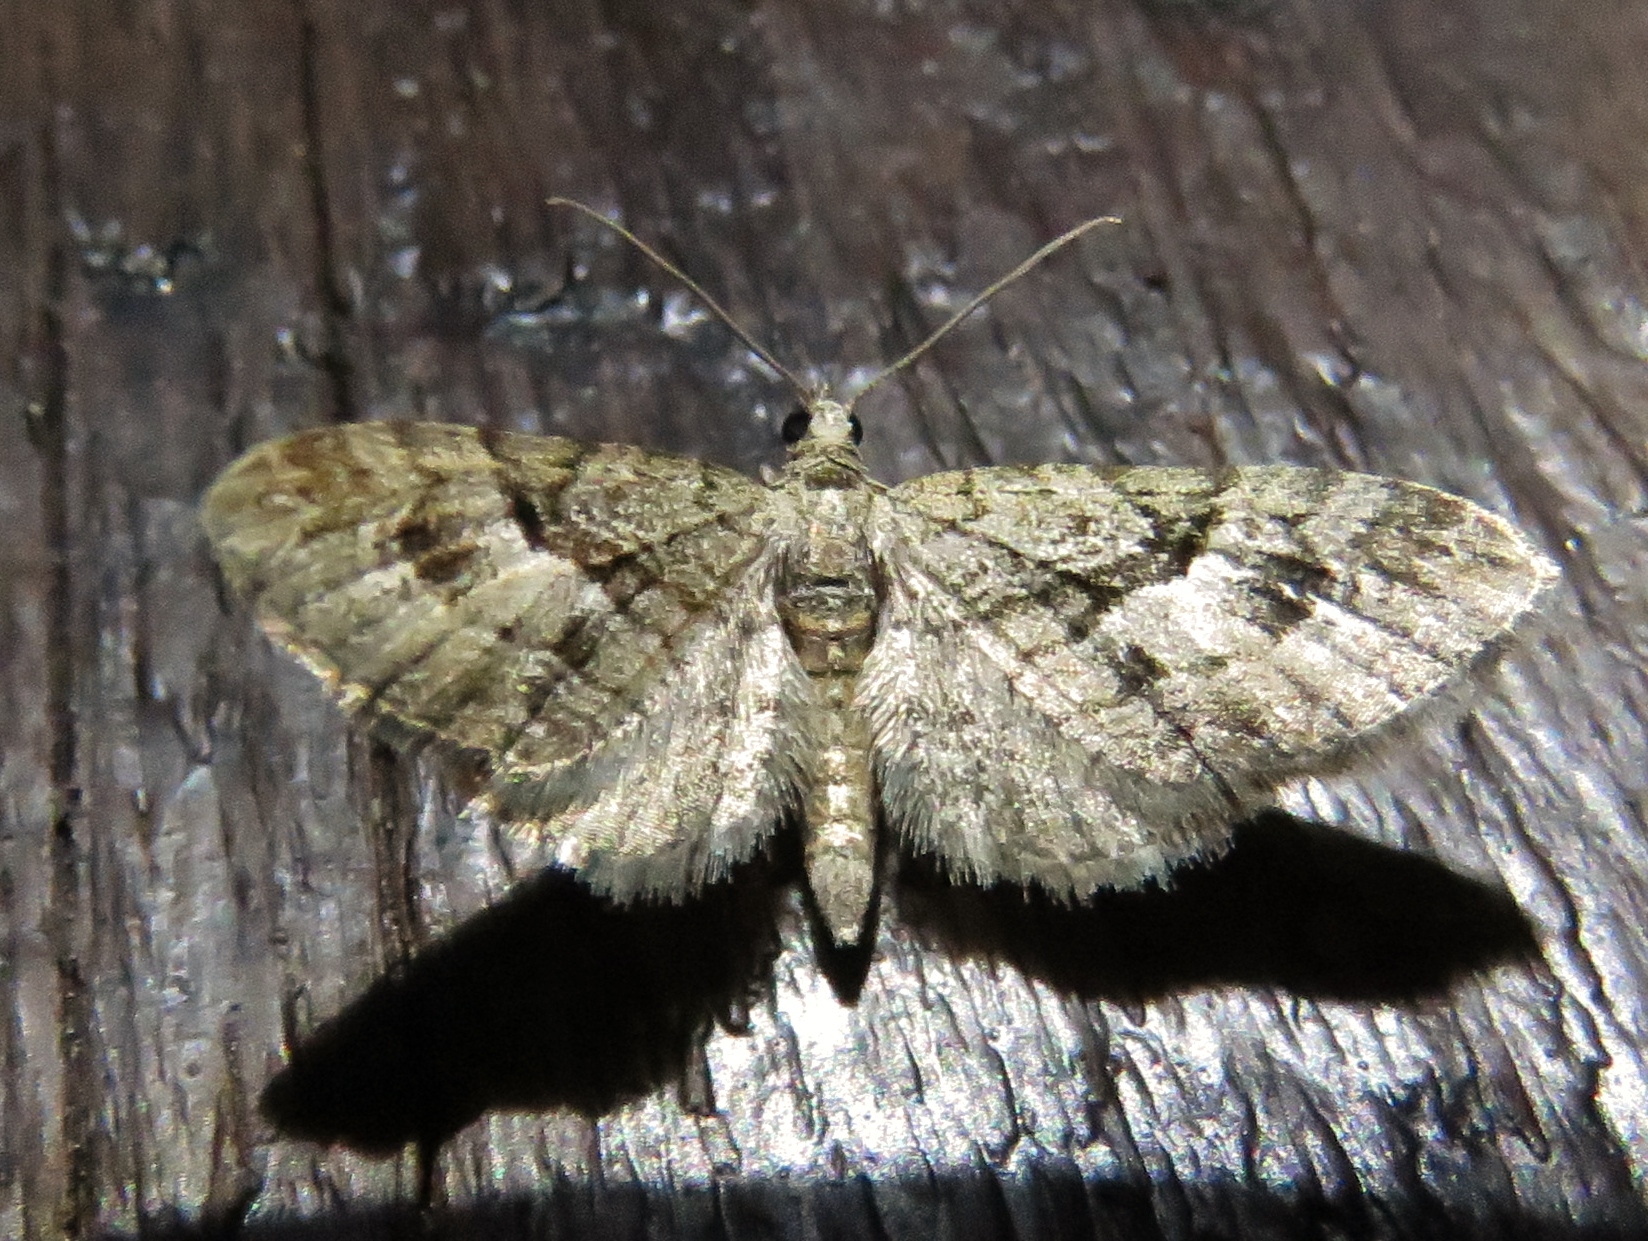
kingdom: Animalia
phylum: Arthropoda
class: Insecta
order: Lepidoptera
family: Geometridae
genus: Eupithecia
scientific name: Eupithecia pusillata
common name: Juniper pug
